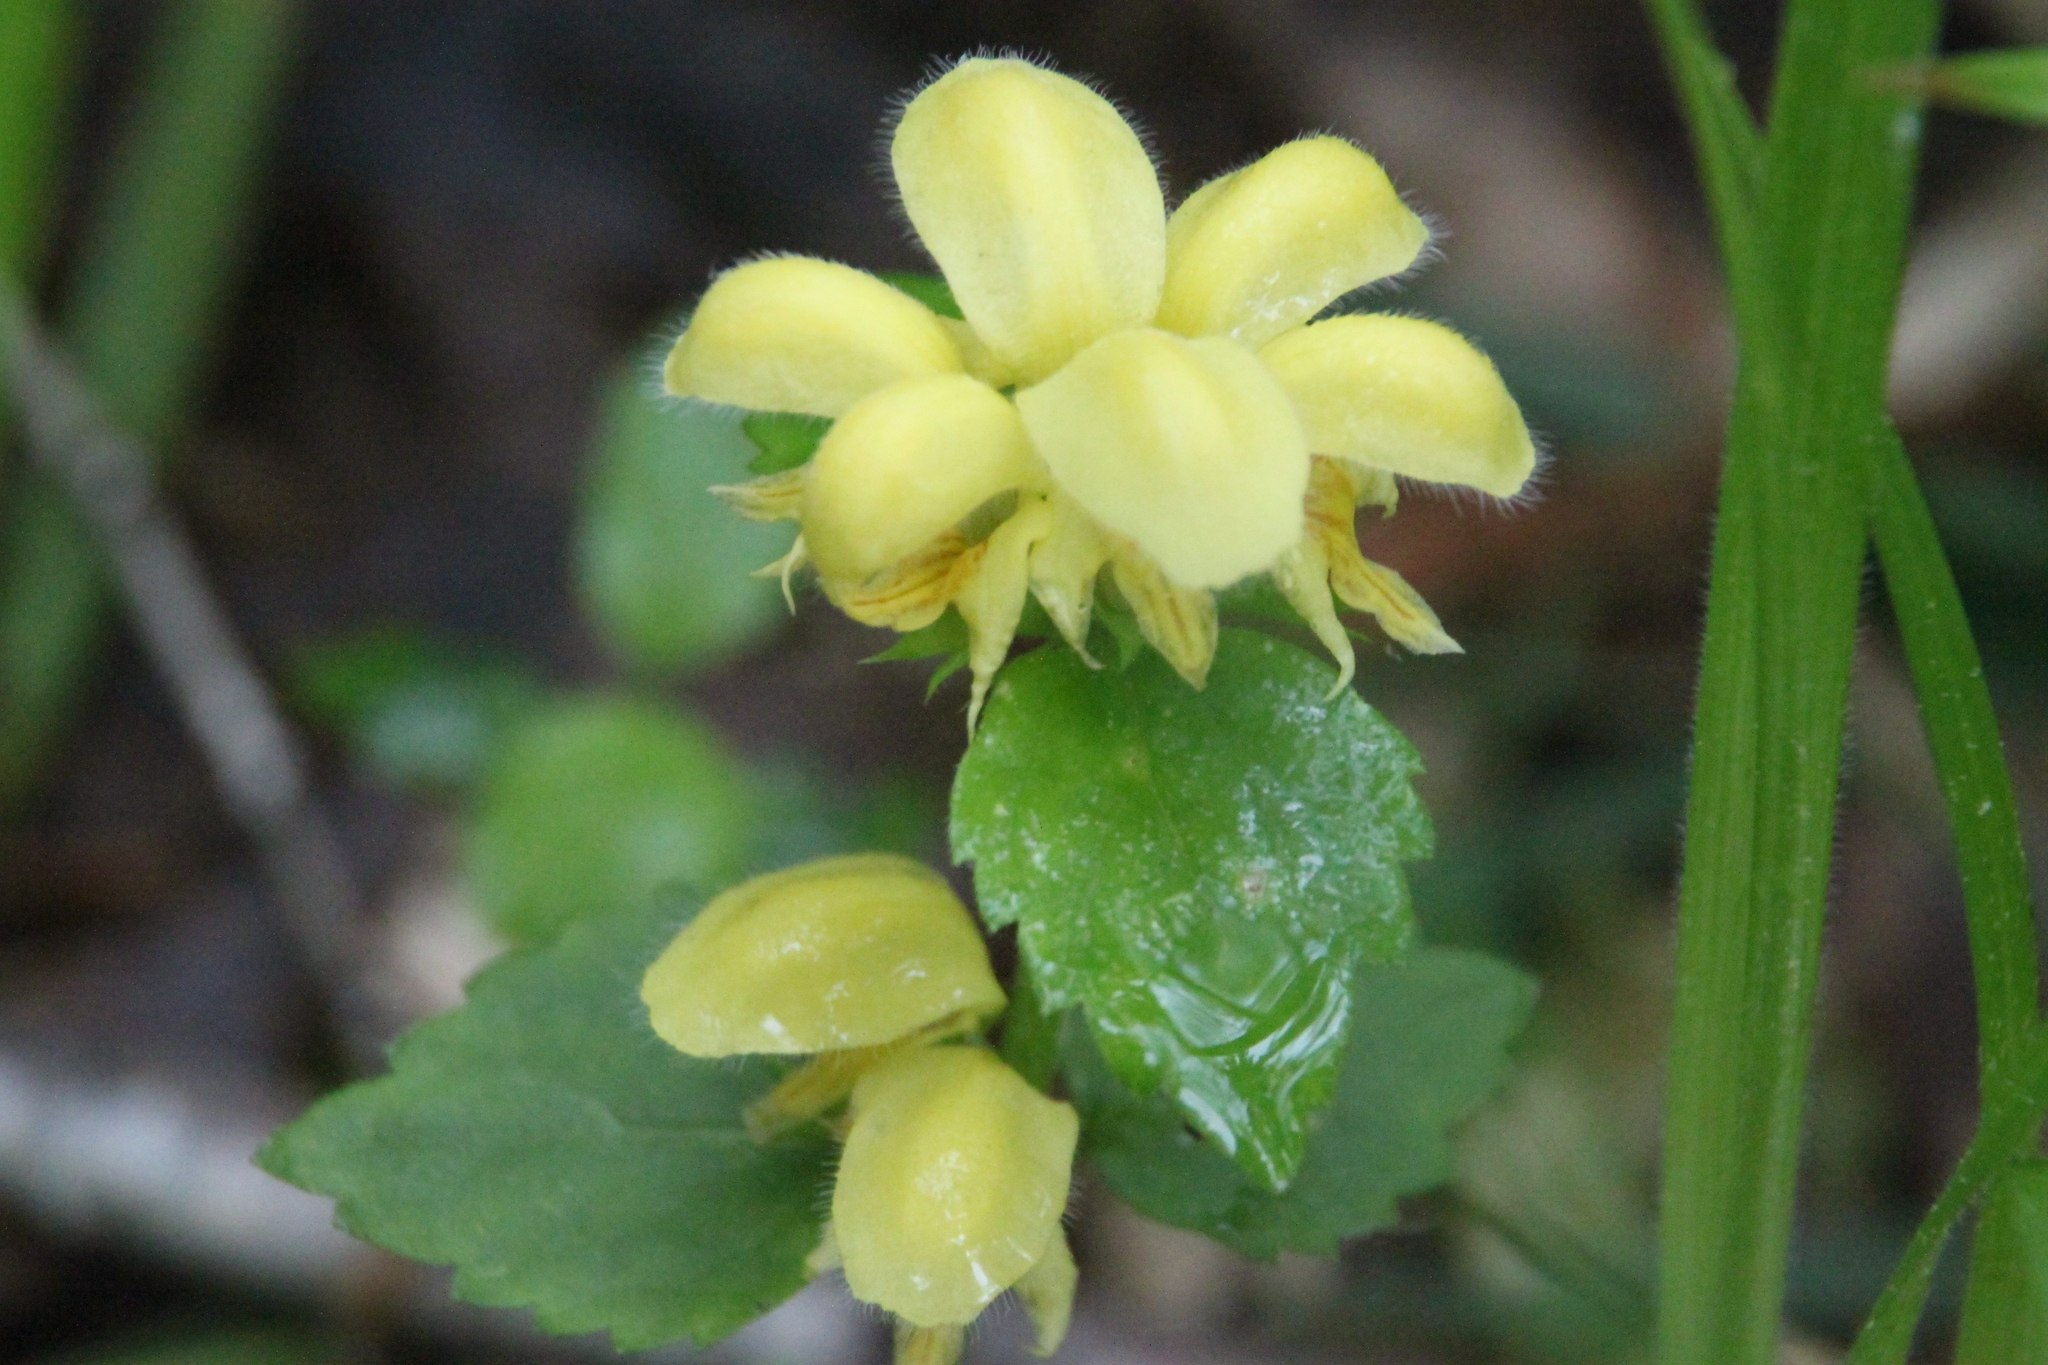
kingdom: Plantae
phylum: Tracheophyta
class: Magnoliopsida
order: Lamiales
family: Lamiaceae
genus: Lamium
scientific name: Lamium galeobdolon
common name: Yellow archangel
